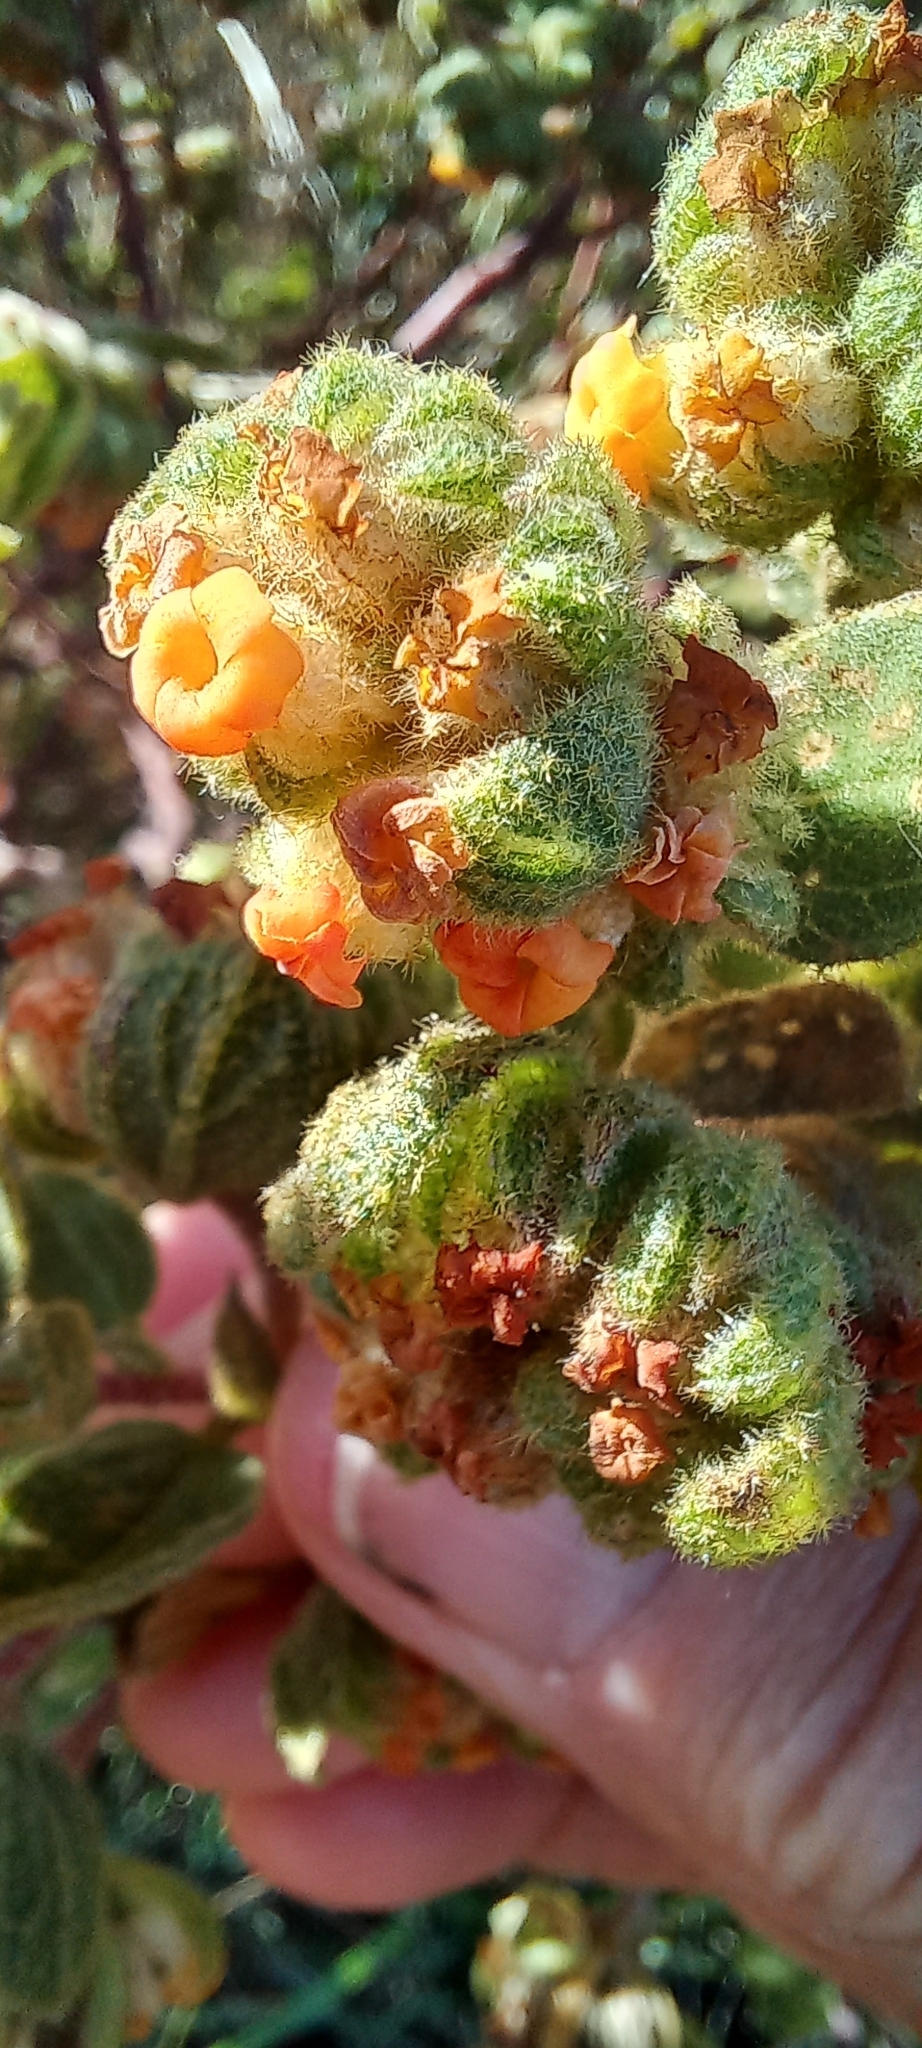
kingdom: Plantae
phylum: Tracheophyta
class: Magnoliopsida
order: Malvales
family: Malvaceae
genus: Hermannia
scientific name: Hermannia salviifolia
